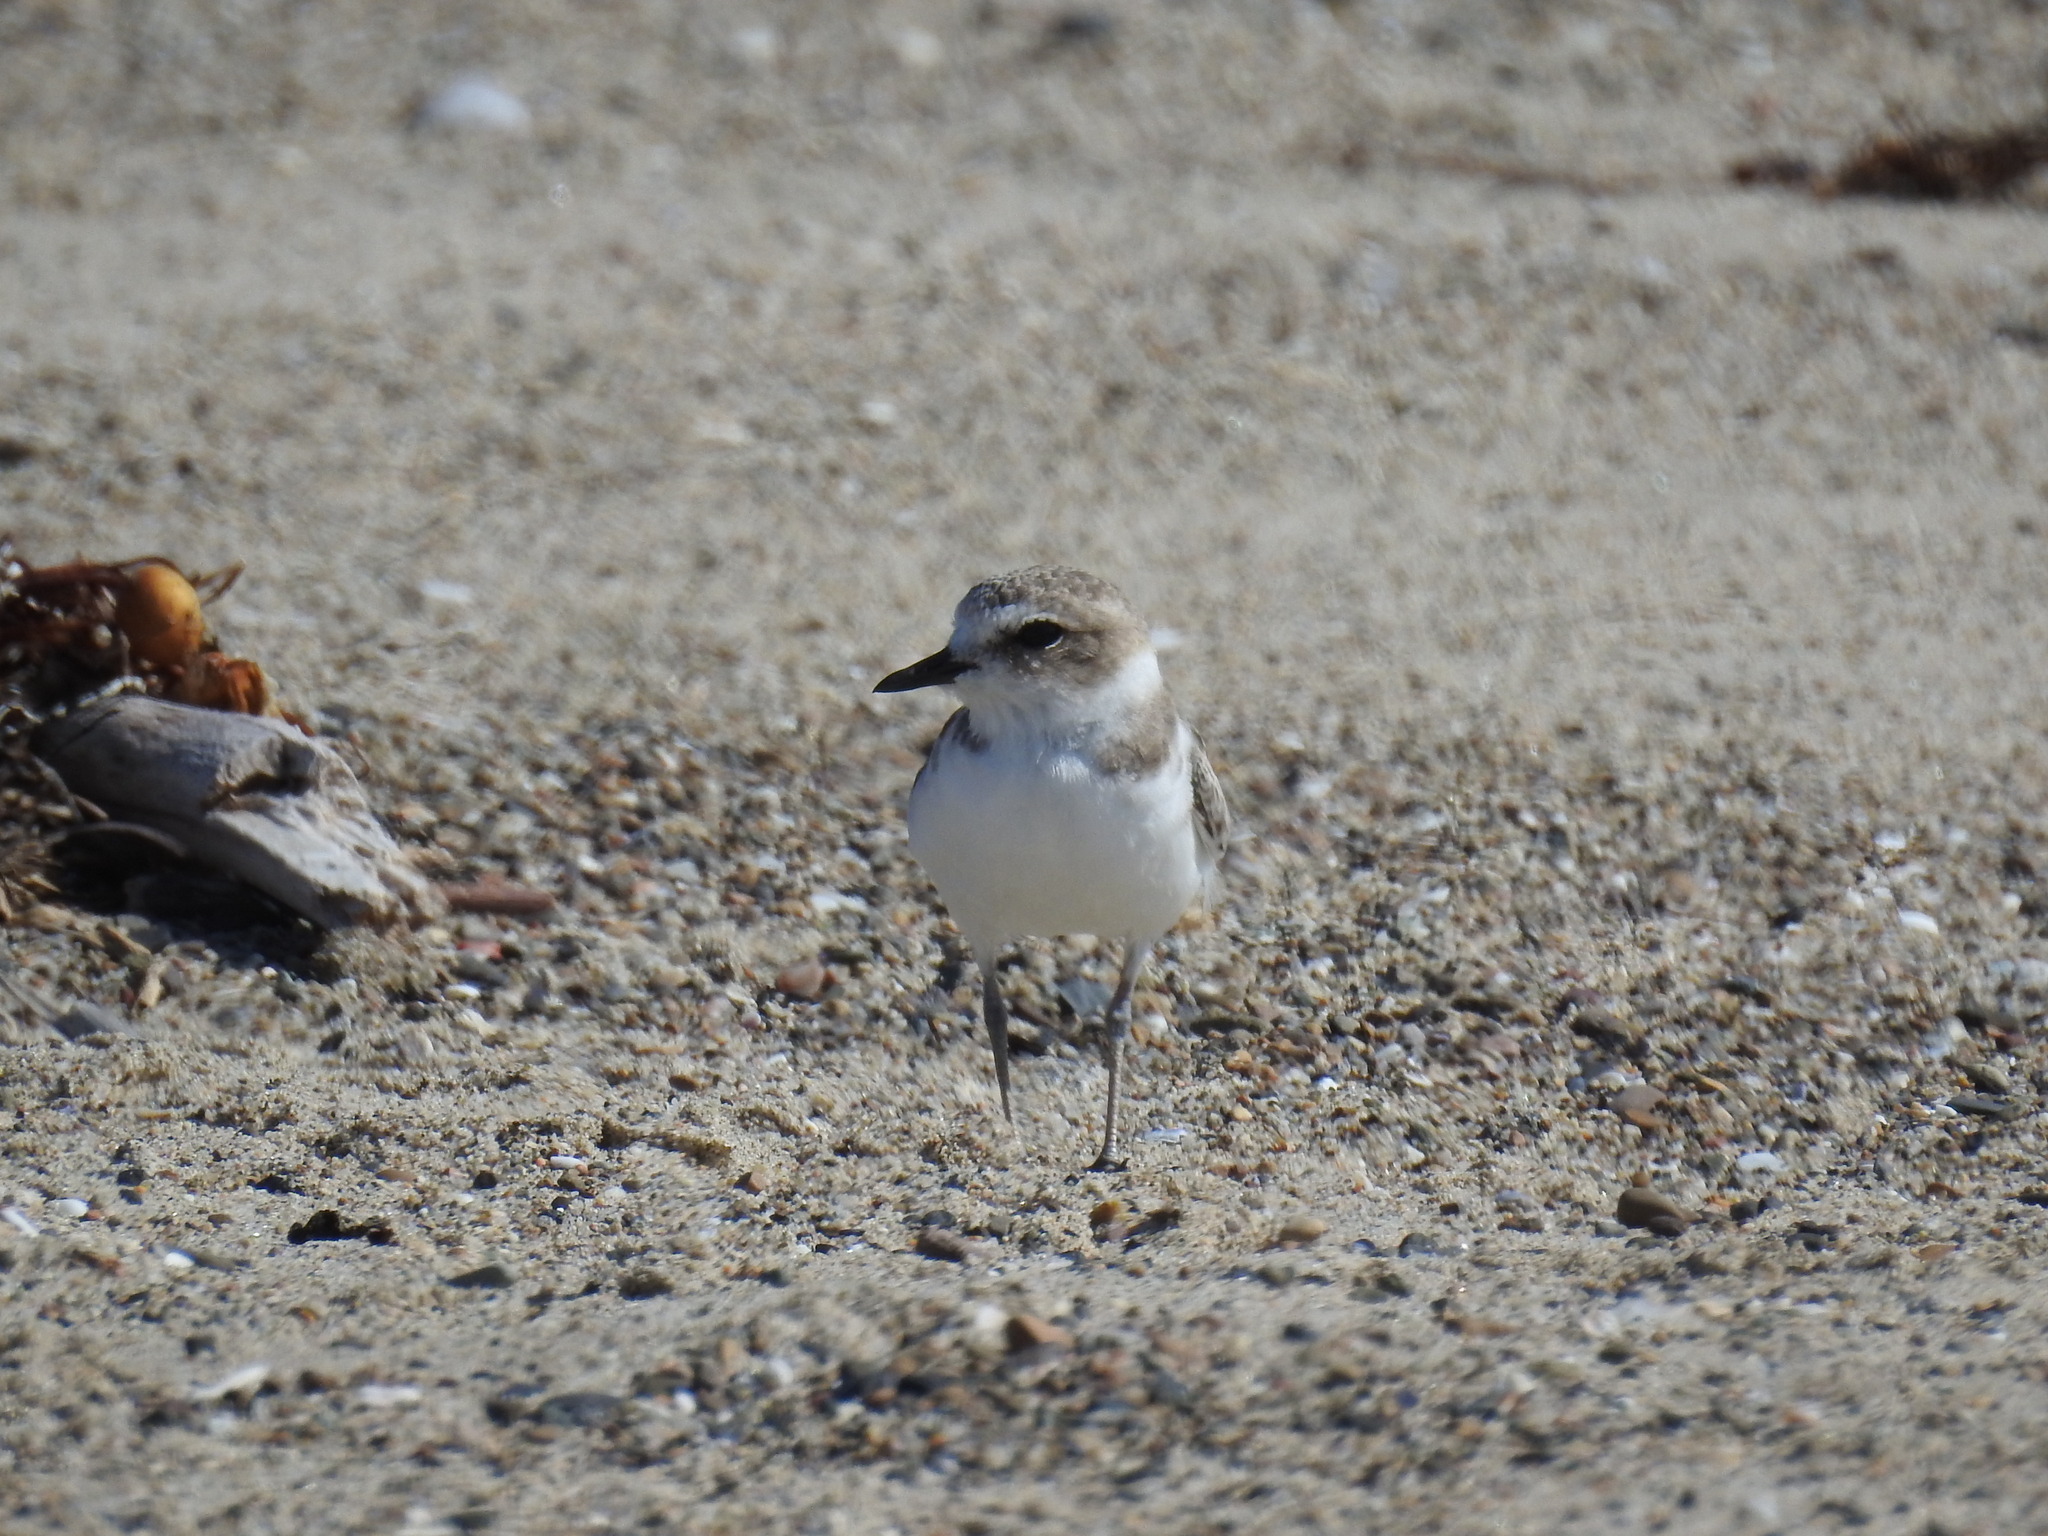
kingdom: Animalia
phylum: Chordata
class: Aves
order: Charadriiformes
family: Charadriidae
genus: Anarhynchus
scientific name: Anarhynchus
